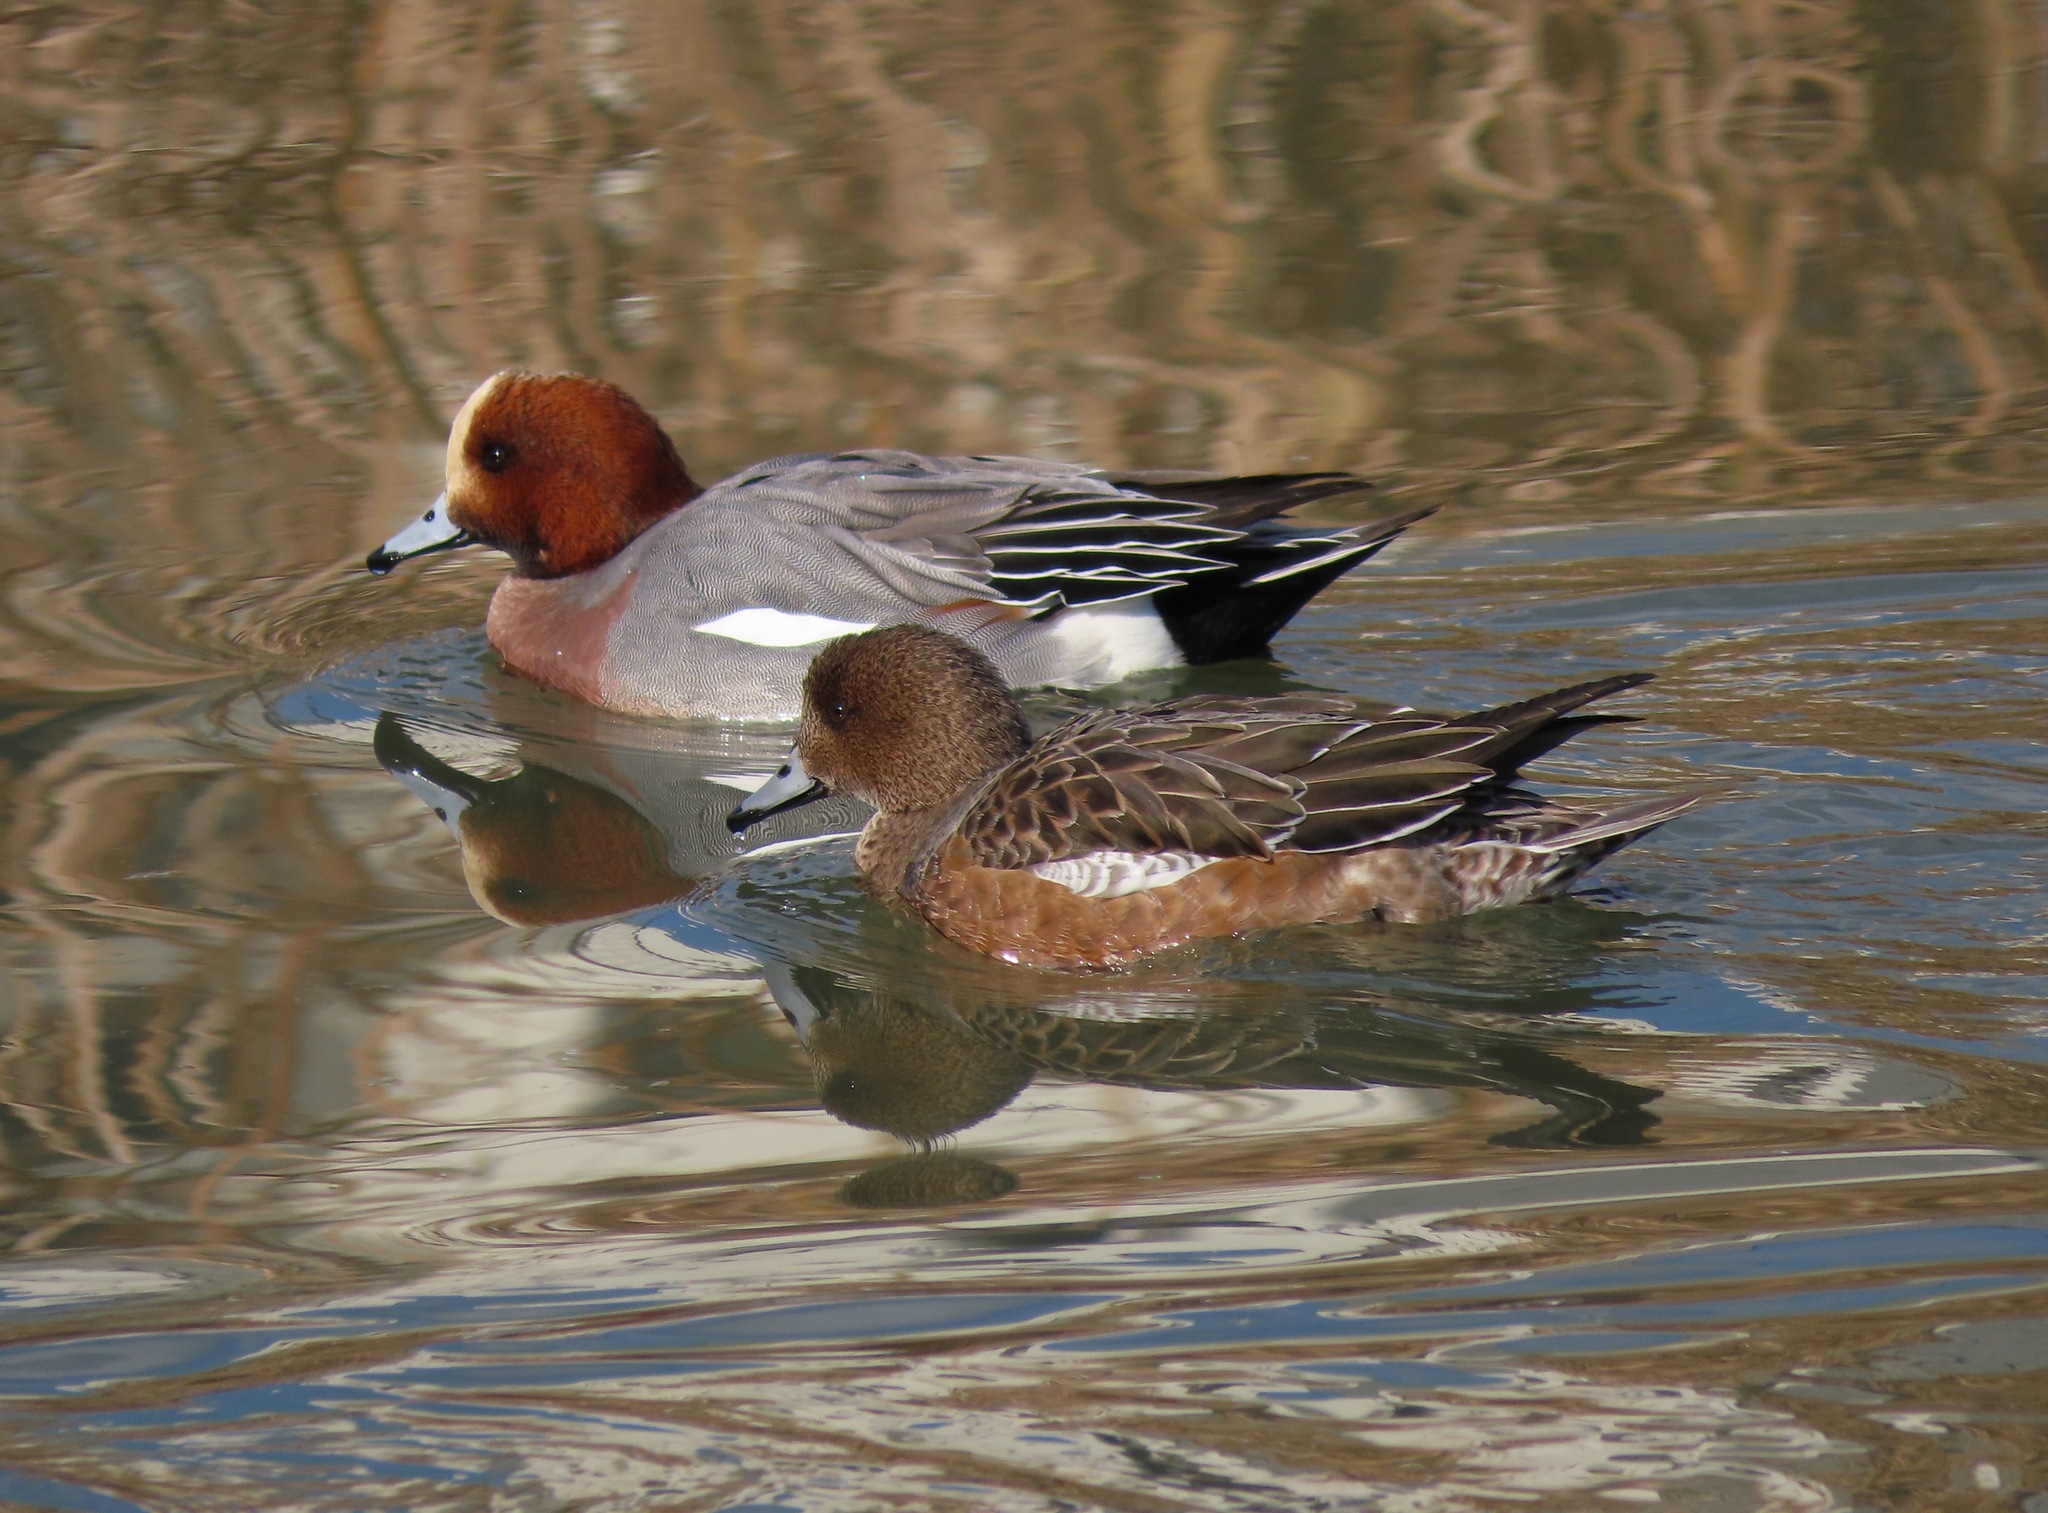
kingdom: Animalia
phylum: Chordata
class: Aves
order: Anseriformes
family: Anatidae
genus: Mareca
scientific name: Mareca penelope
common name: Eurasian wigeon
